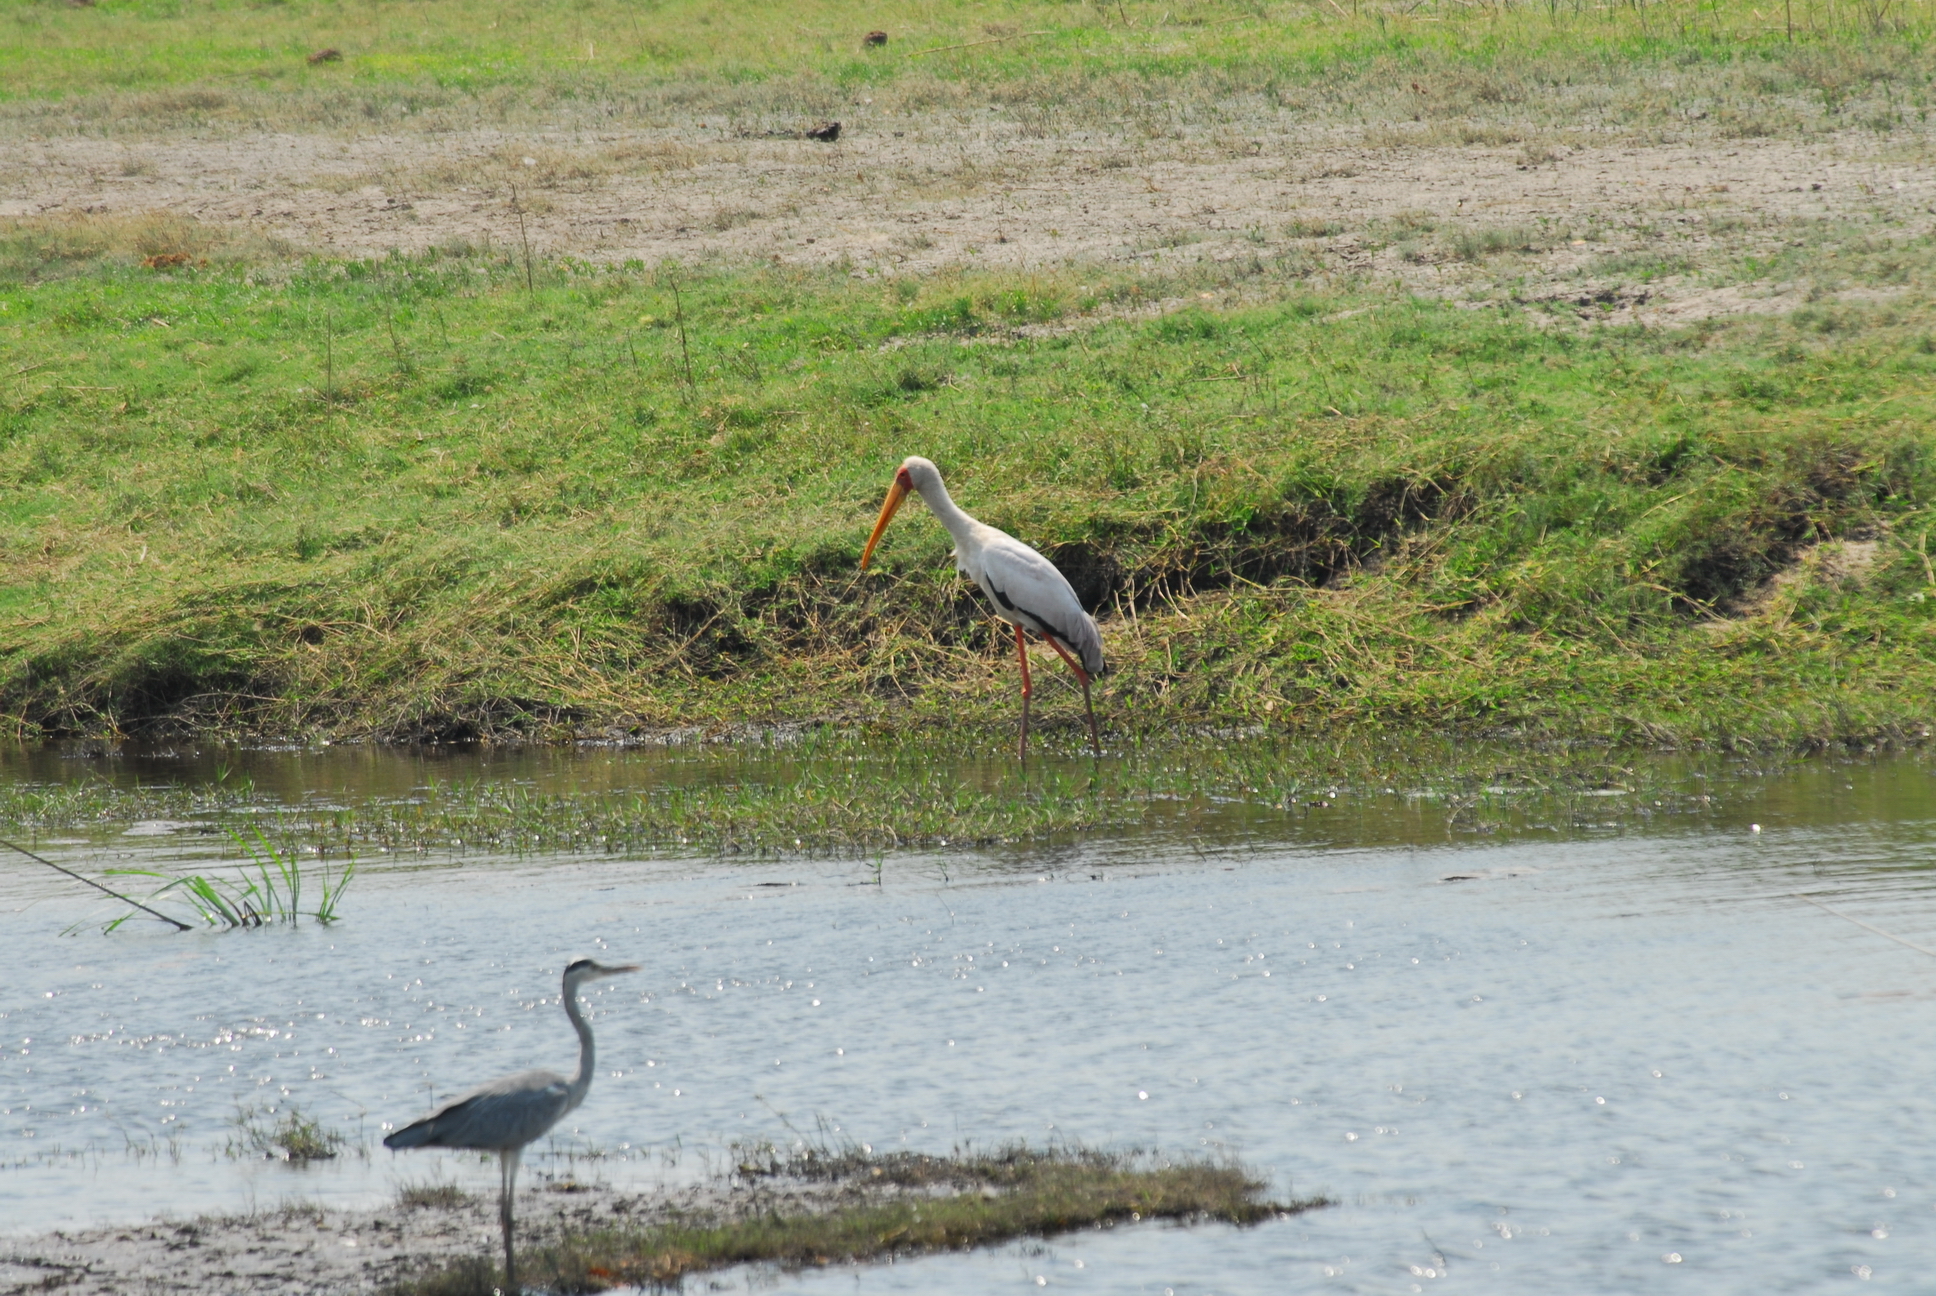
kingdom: Animalia
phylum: Chordata
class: Aves
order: Ciconiiformes
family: Ciconiidae
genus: Mycteria
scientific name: Mycteria ibis
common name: Yellow-billed stork
